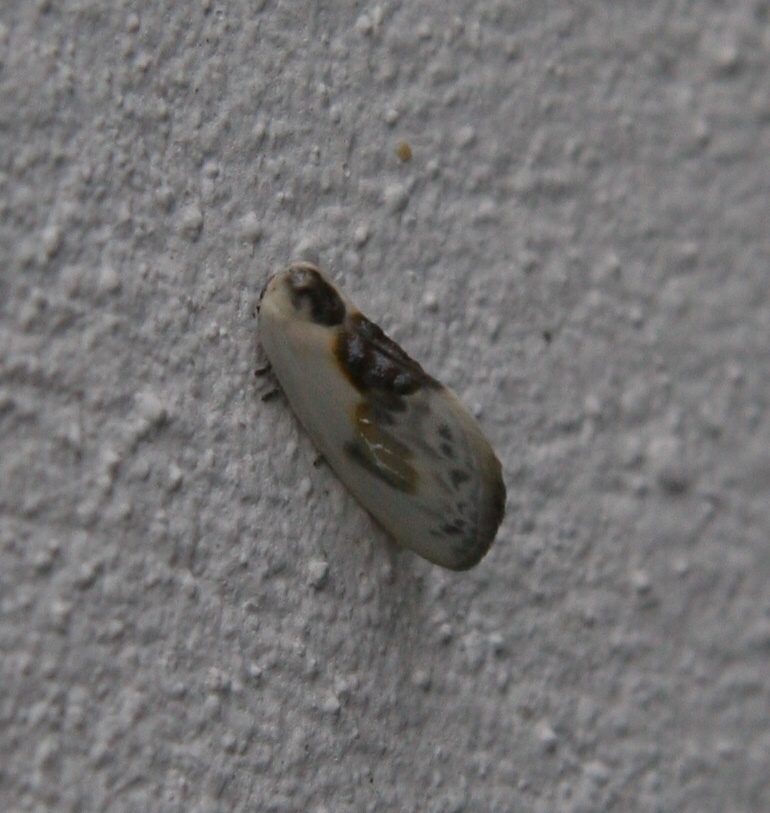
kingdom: Animalia
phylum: Arthropoda
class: Insecta
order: Lepidoptera
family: Drepanidae
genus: Cilix
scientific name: Cilix glaucata
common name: Chinese character
